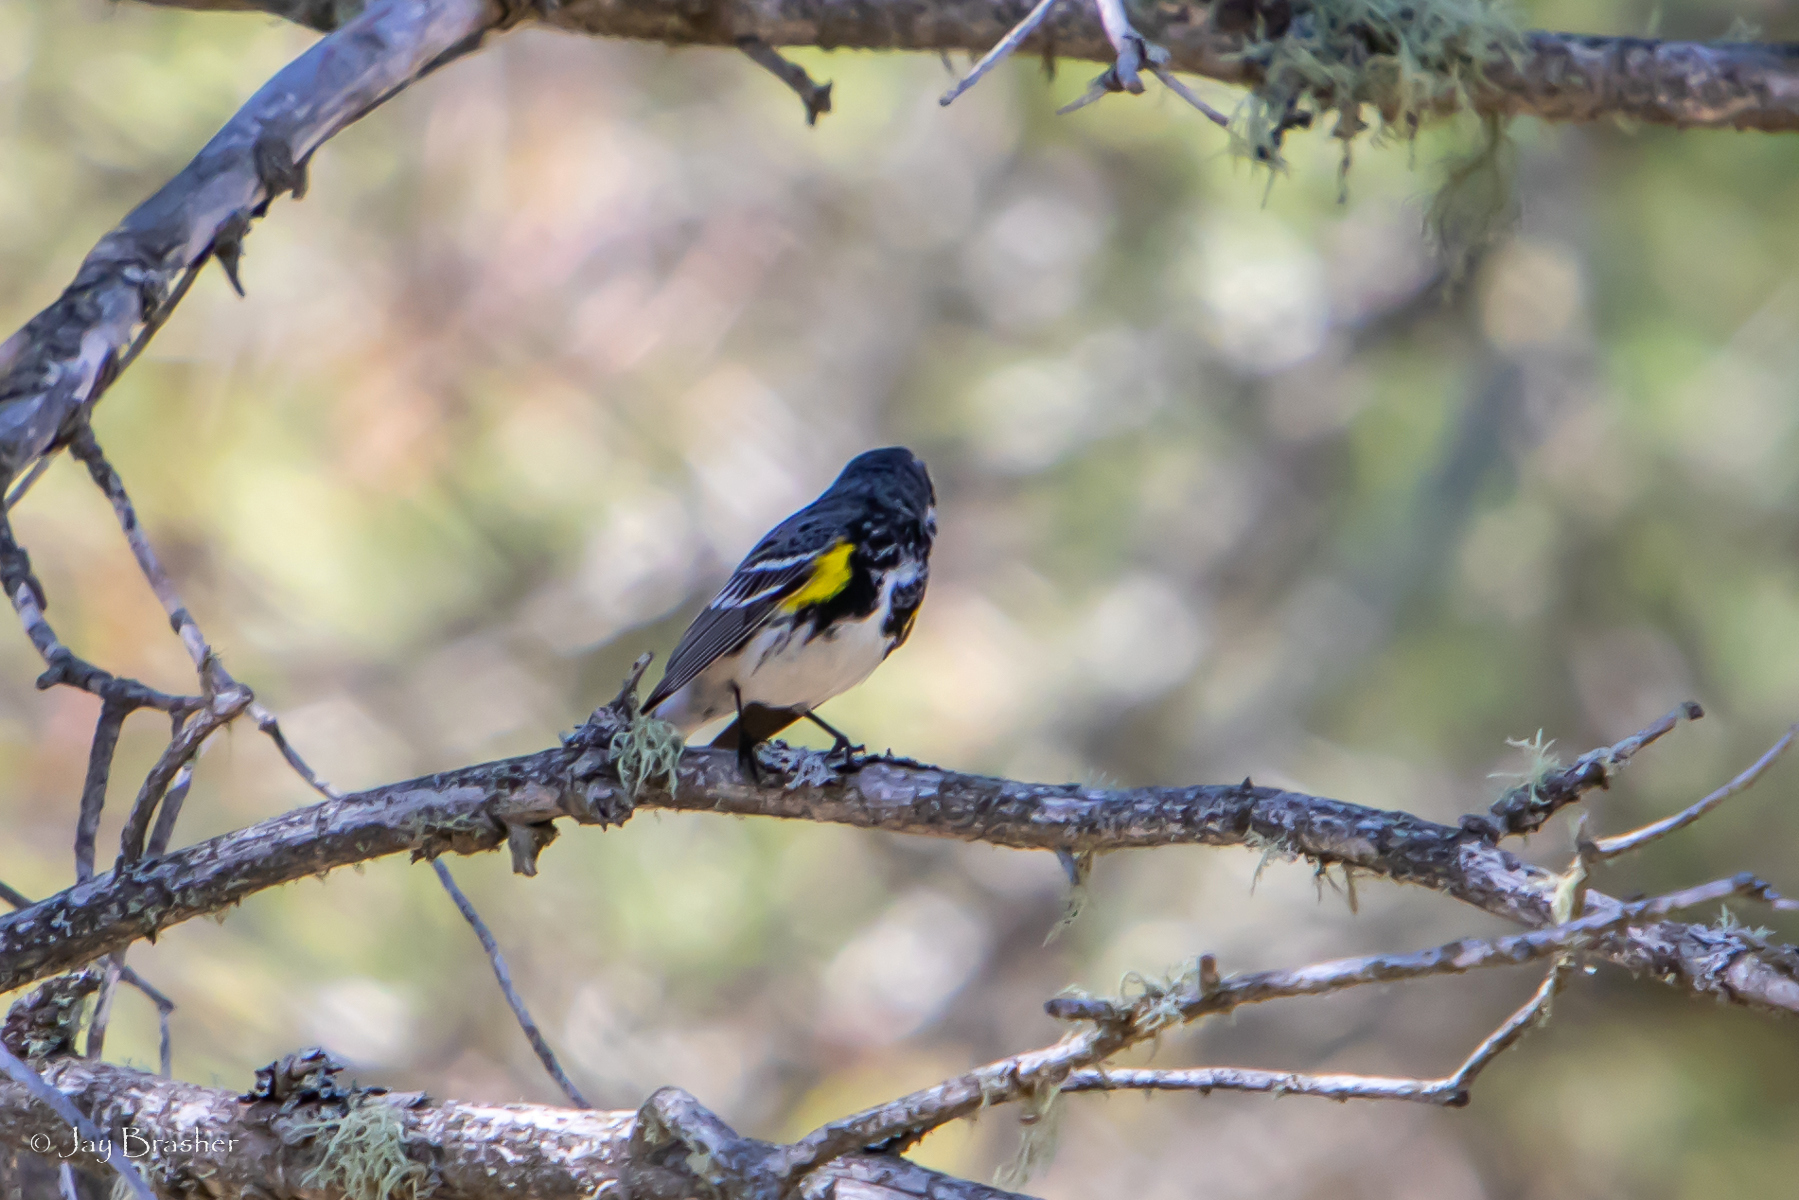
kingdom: Animalia
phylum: Chordata
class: Aves
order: Passeriformes
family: Parulidae
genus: Setophaga
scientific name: Setophaga coronata
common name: Myrtle warbler
